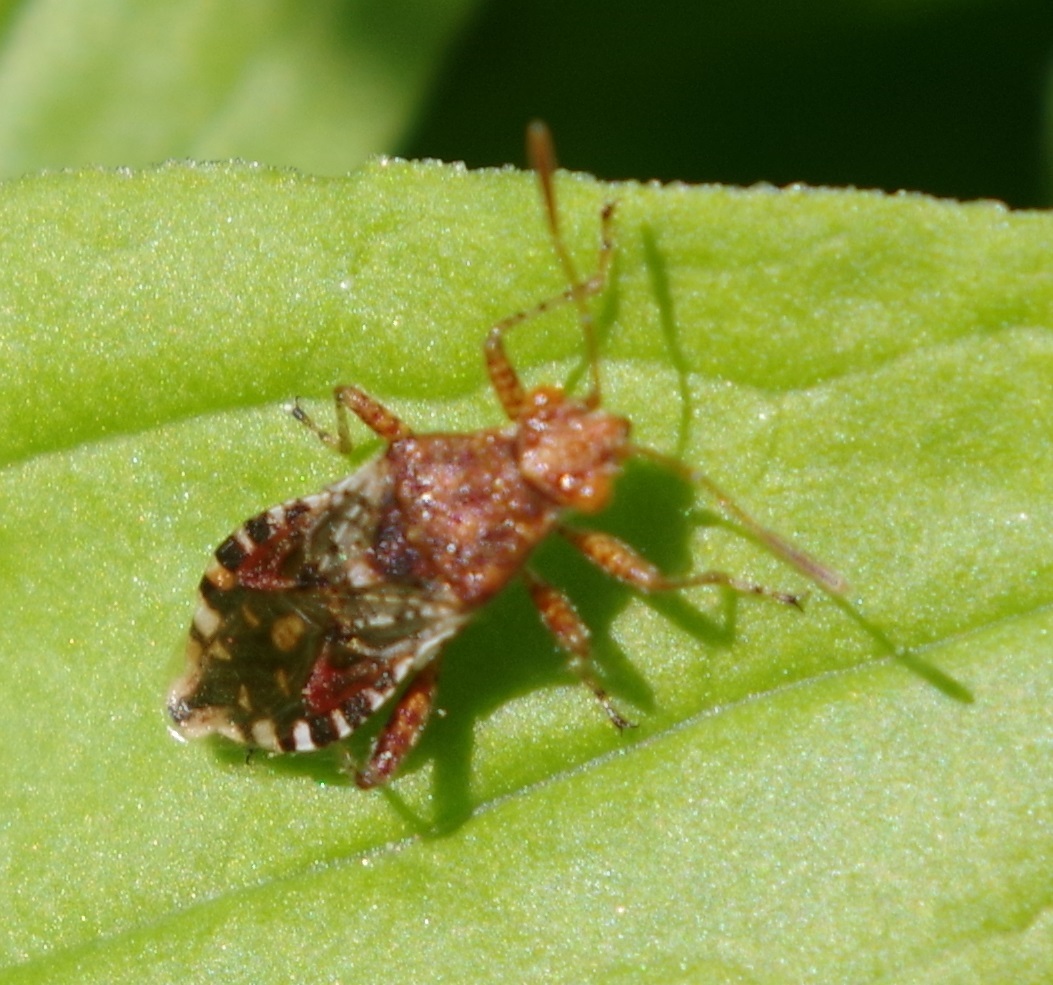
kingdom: Animalia
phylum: Arthropoda
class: Insecta
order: Hemiptera
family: Rhopalidae
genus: Rhopalus
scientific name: Rhopalus subrufus
